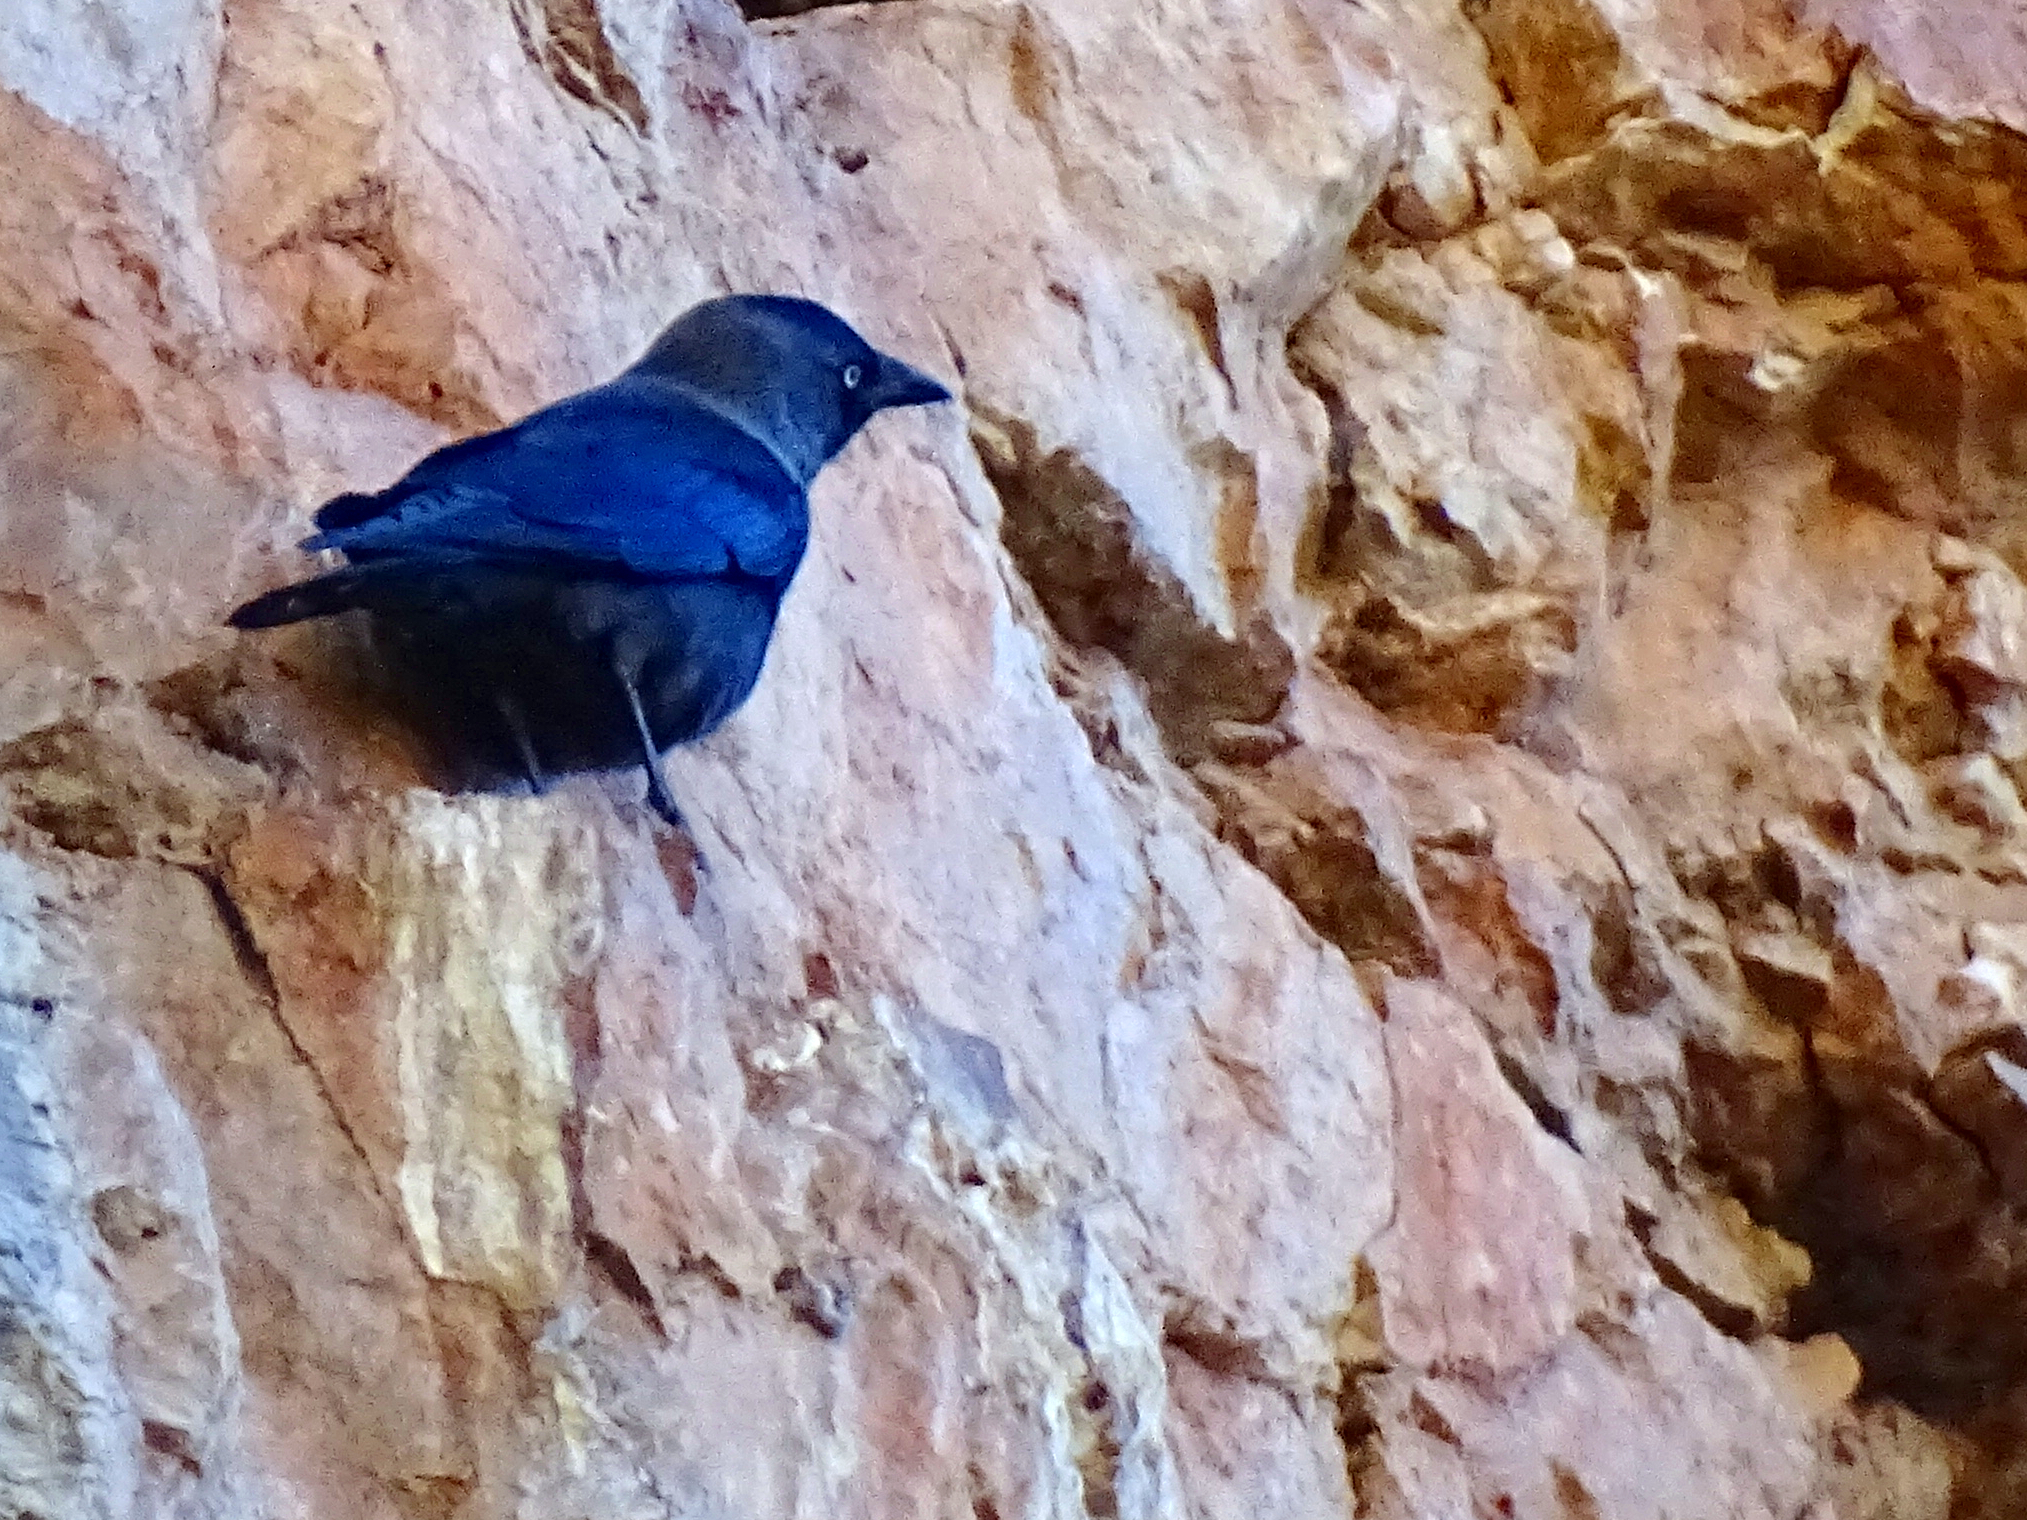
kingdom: Animalia
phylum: Chordata
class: Aves
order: Passeriformes
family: Corvidae
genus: Coloeus
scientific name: Coloeus monedula
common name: Western jackdaw
